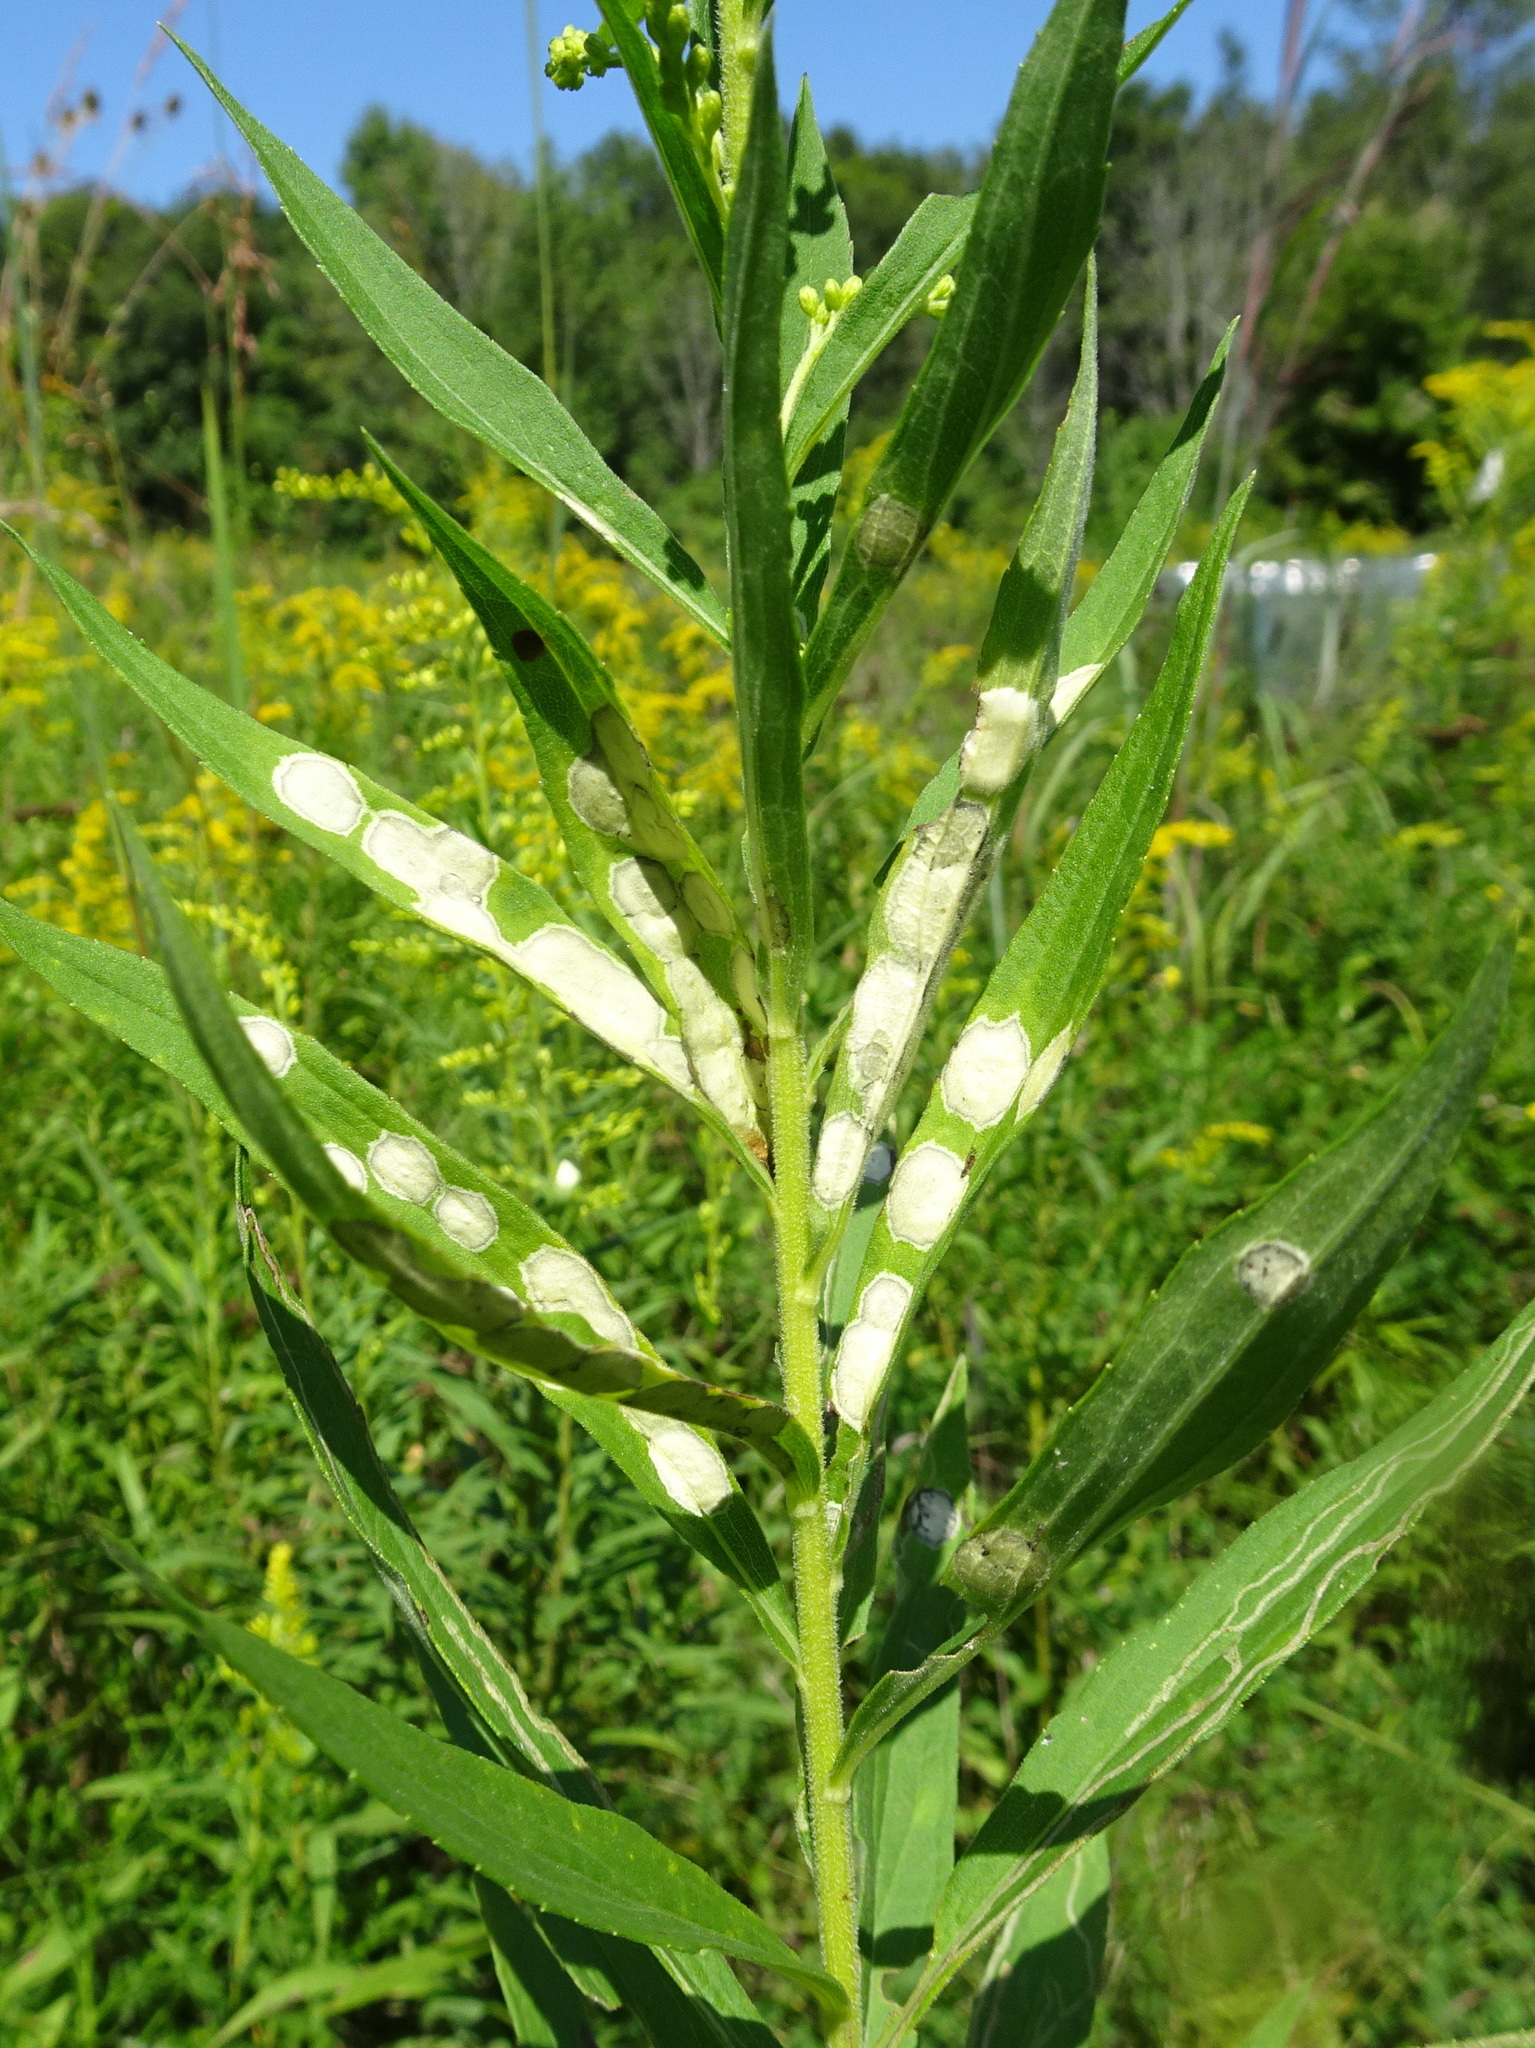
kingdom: Animalia
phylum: Arthropoda
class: Insecta
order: Diptera
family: Cecidomyiidae
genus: Asteromyia
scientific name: Asteromyia carbonifera
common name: Carbonifera goldenrod gall midge
